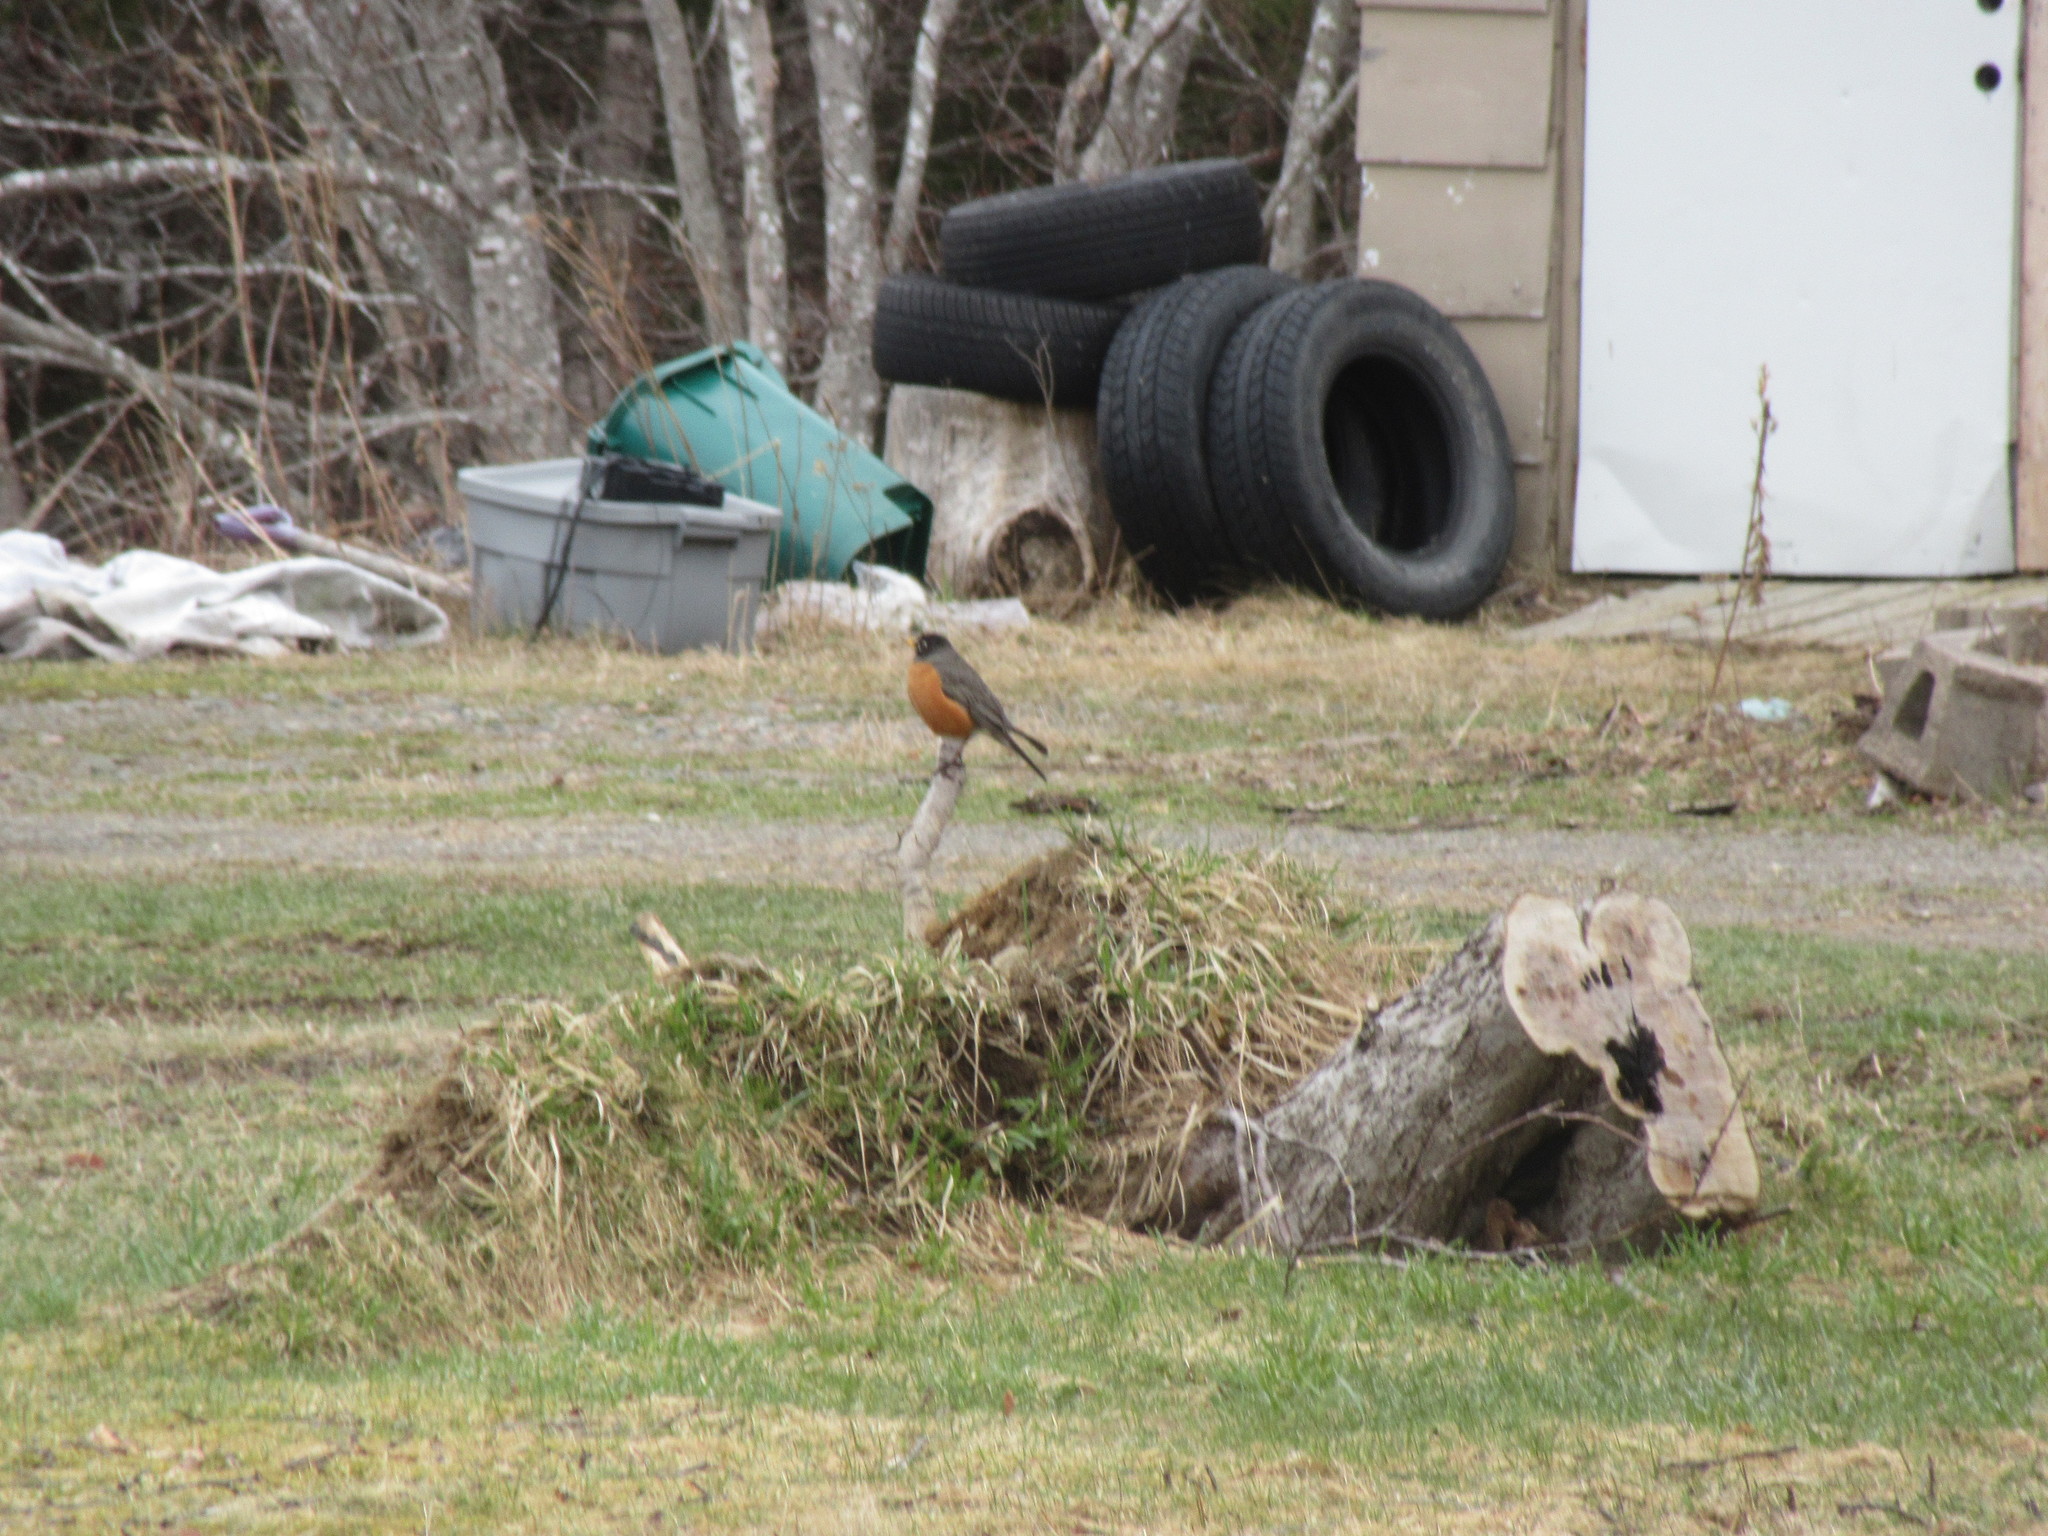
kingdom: Animalia
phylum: Chordata
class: Aves
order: Passeriformes
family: Turdidae
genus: Turdus
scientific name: Turdus migratorius
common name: American robin
